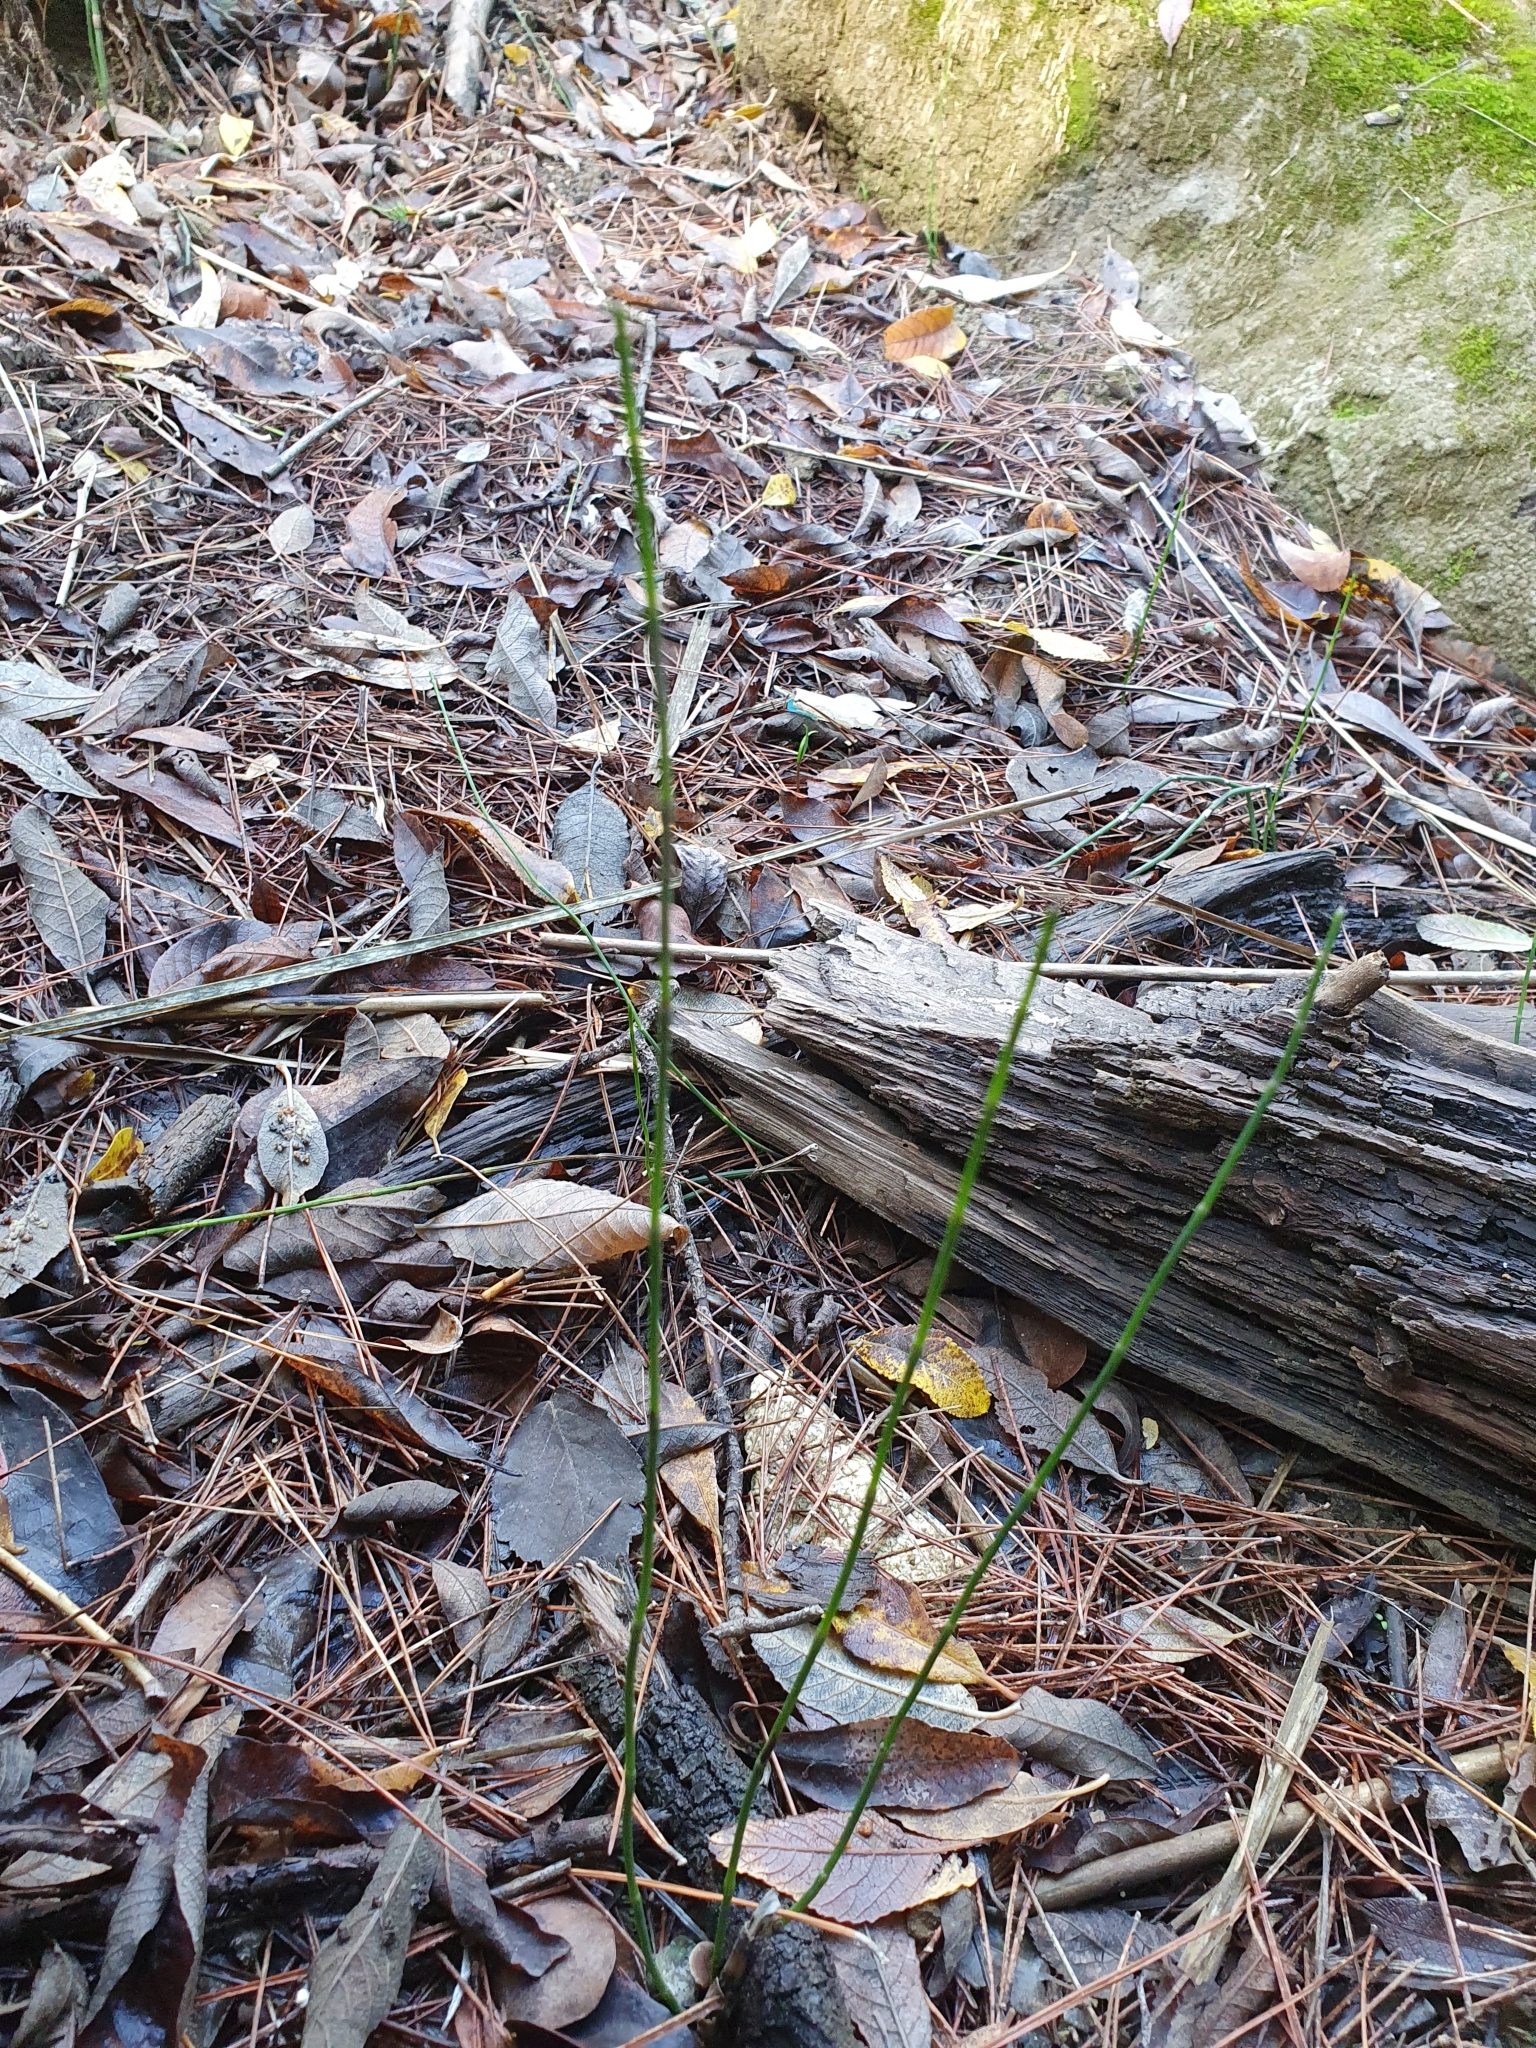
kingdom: Plantae
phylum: Tracheophyta
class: Polypodiopsida
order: Equisetales
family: Equisetaceae
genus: Equisetum
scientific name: Equisetum ramosissimum
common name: Branched horsetail
